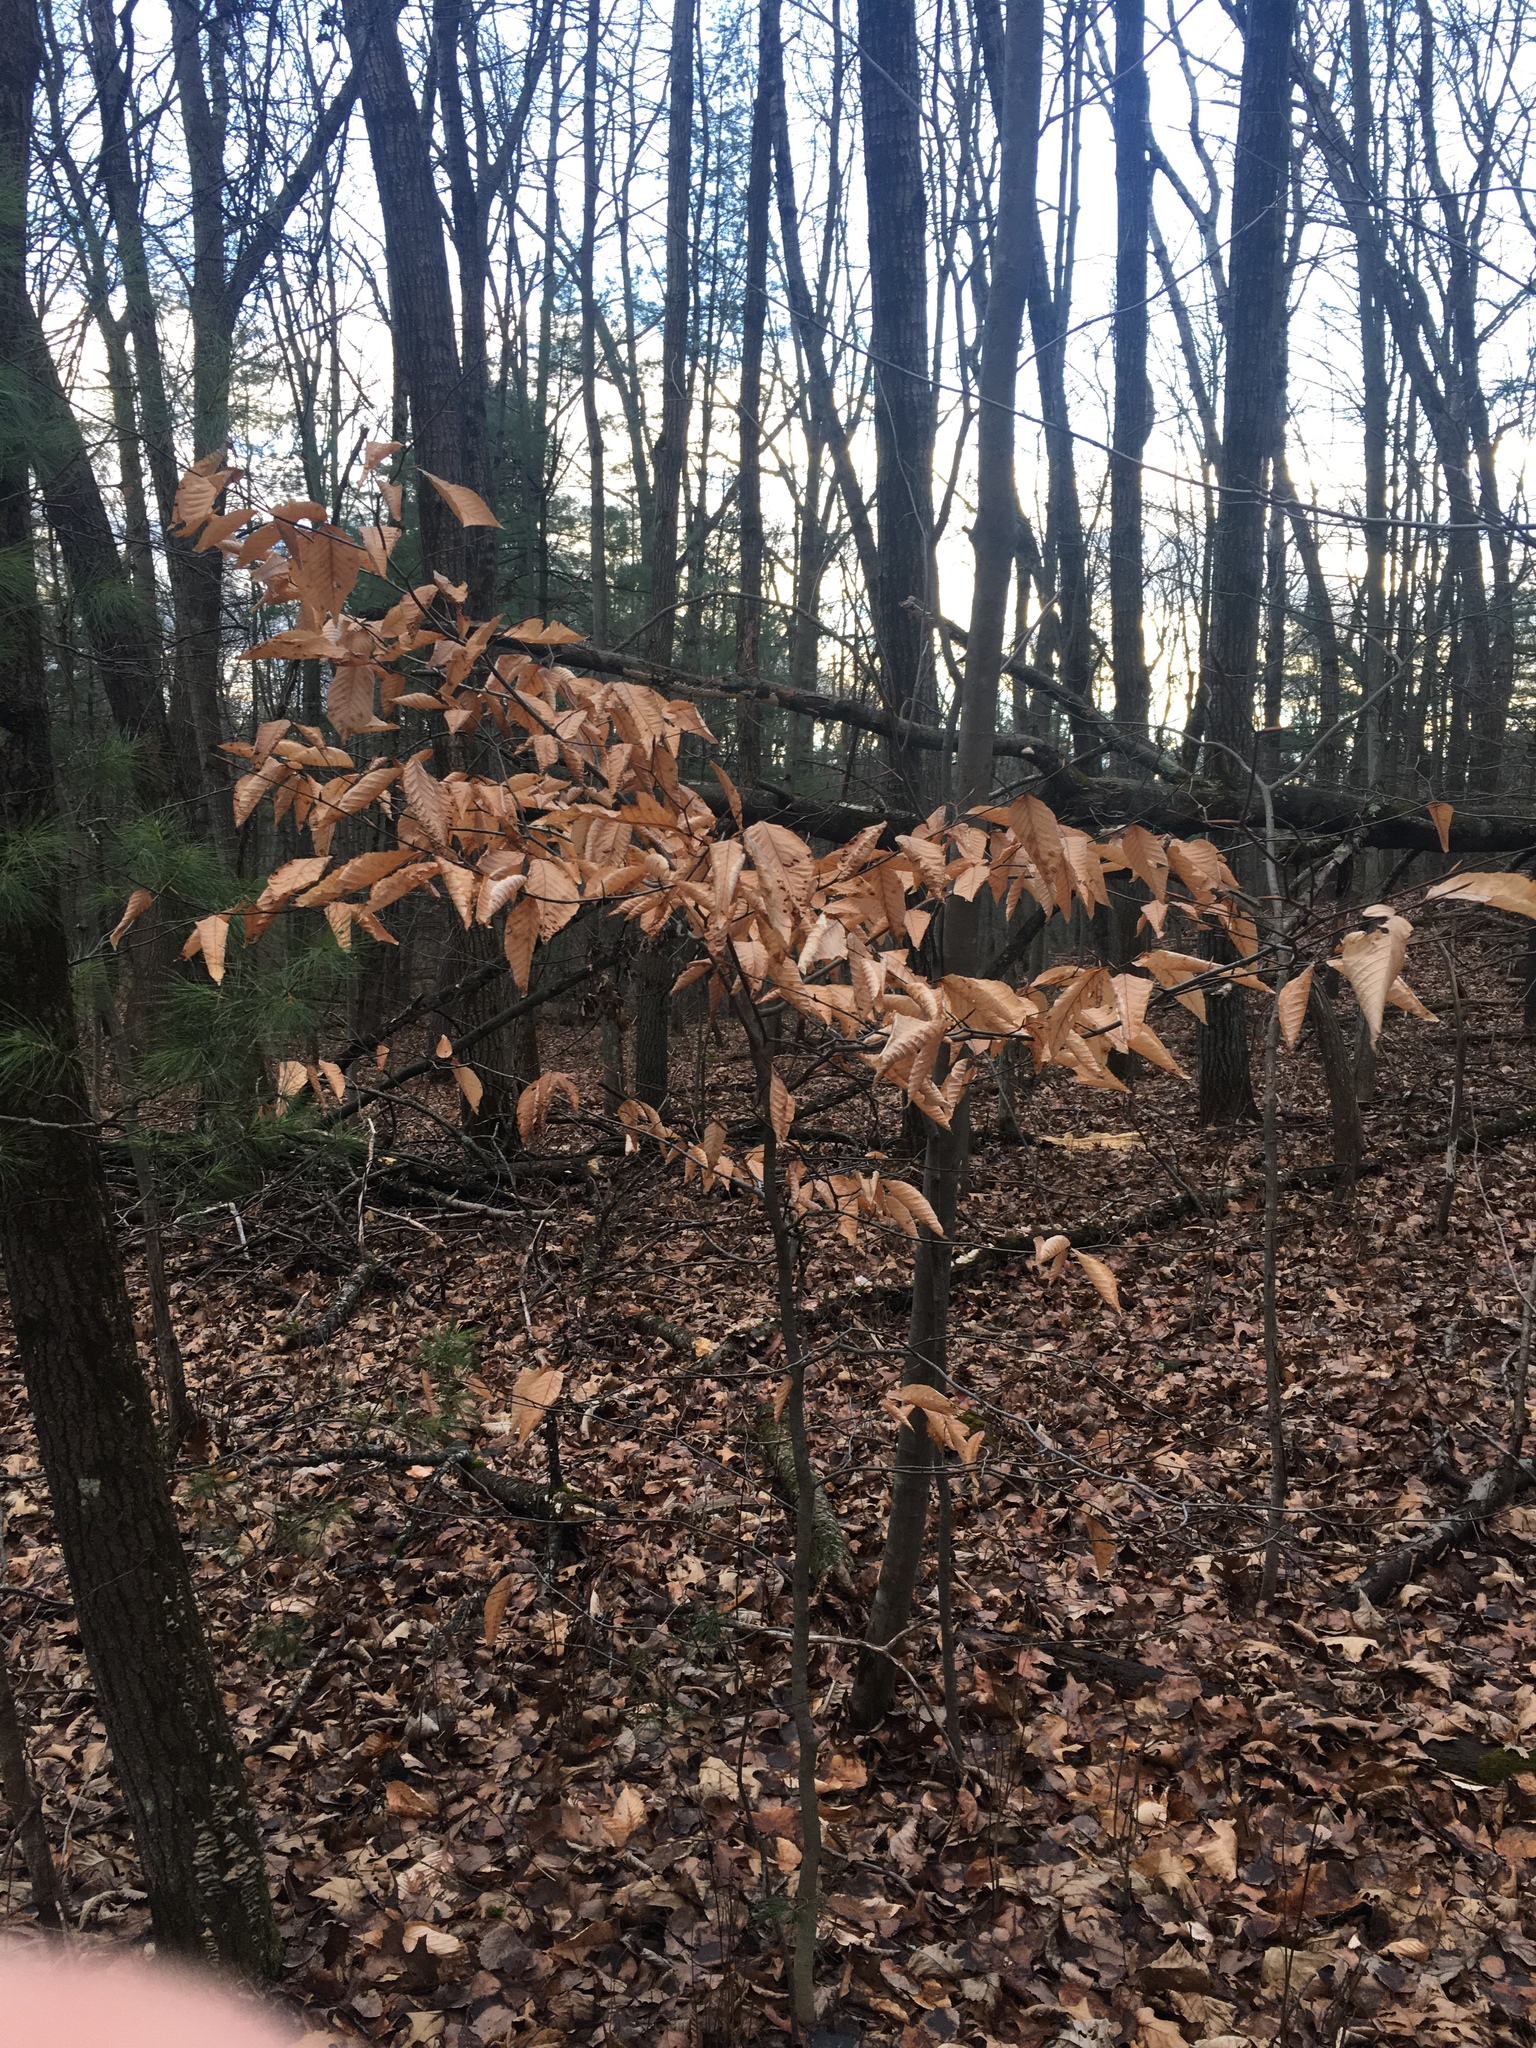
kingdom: Plantae
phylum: Tracheophyta
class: Magnoliopsida
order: Fagales
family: Fagaceae
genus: Fagus
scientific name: Fagus grandifolia
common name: American beech
